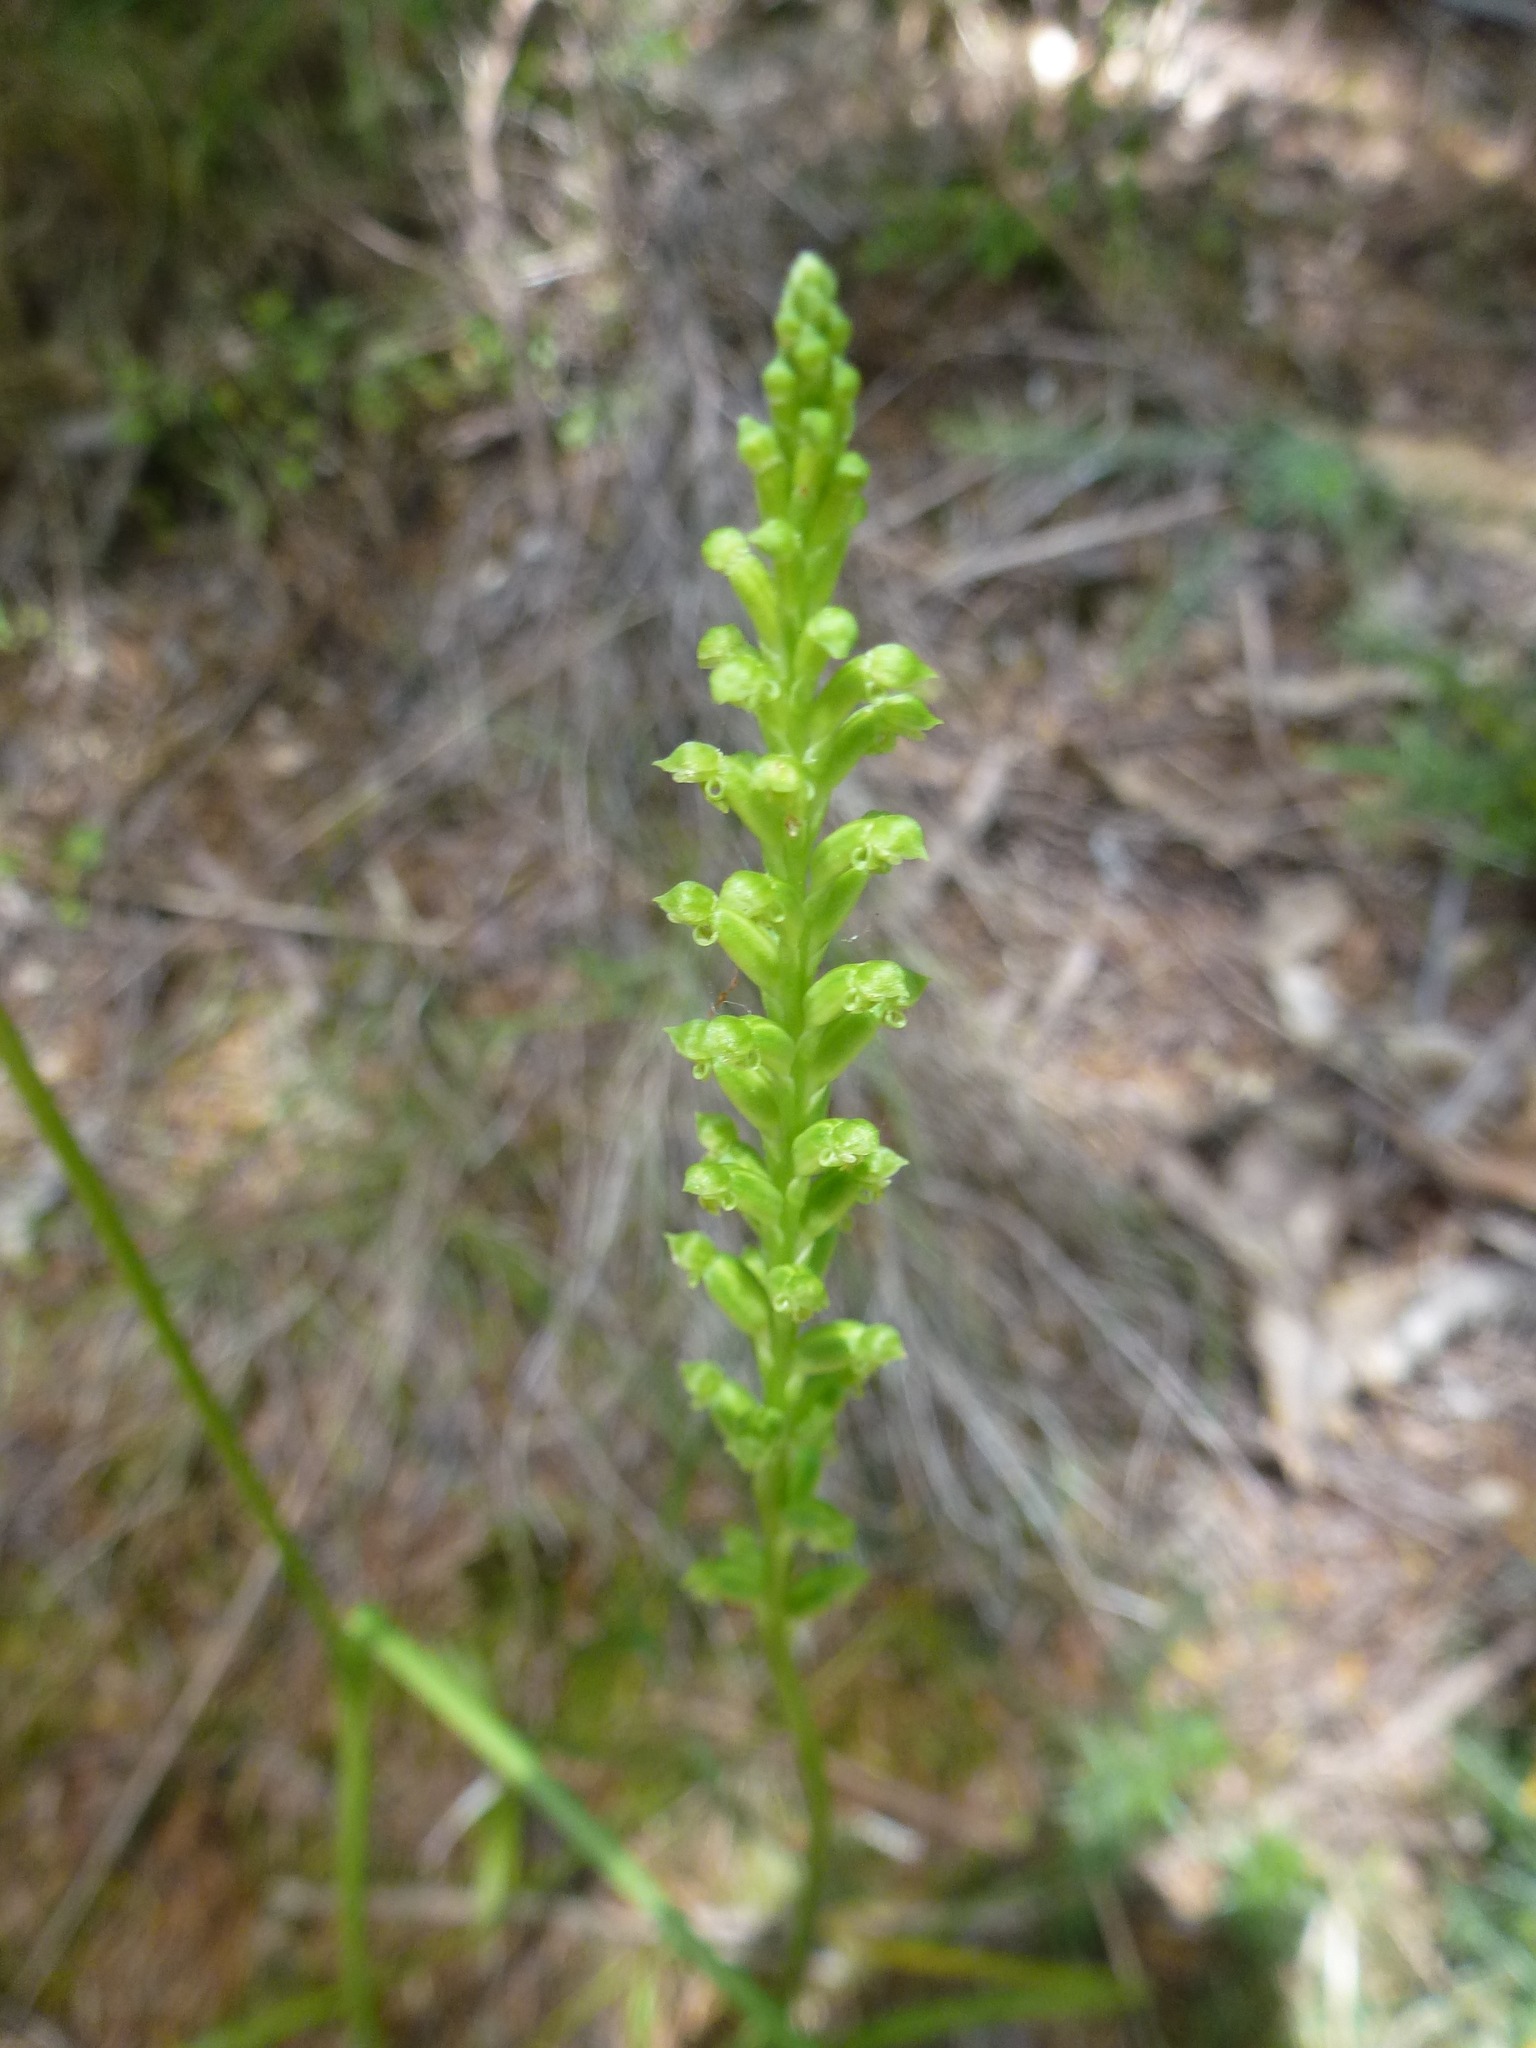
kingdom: Plantae
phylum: Tracheophyta
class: Liliopsida
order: Asparagales
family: Orchidaceae
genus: Microtis
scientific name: Microtis unifolia
